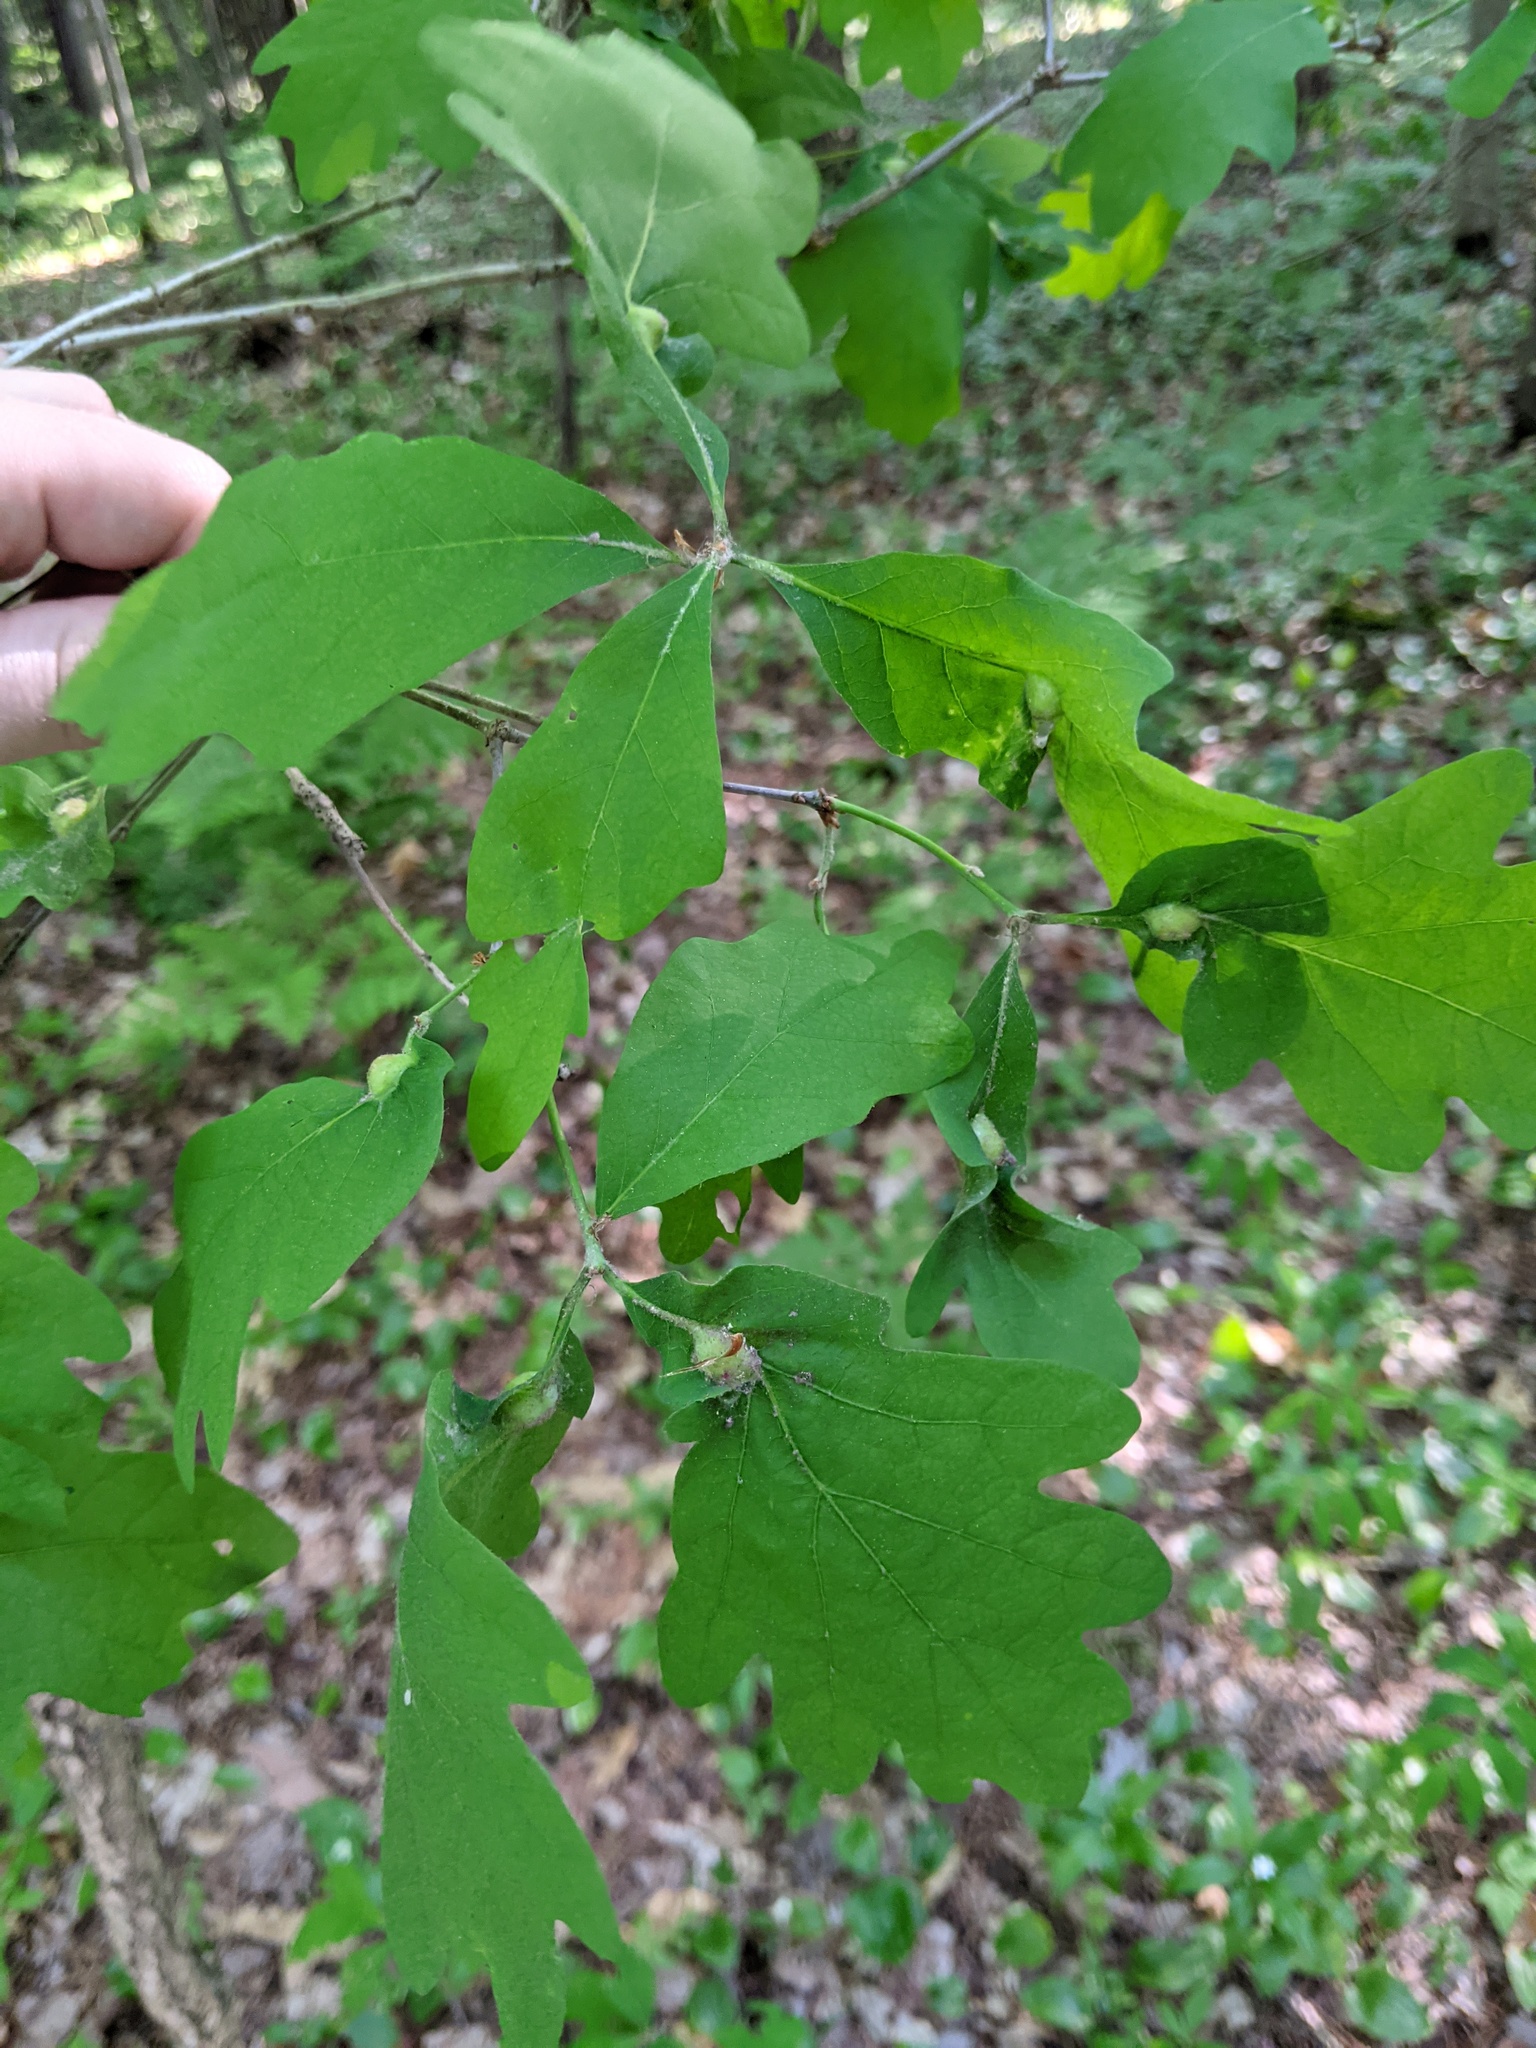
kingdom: Animalia
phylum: Arthropoda
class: Insecta
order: Hymenoptera
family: Cynipidae
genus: Andricus
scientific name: Andricus
